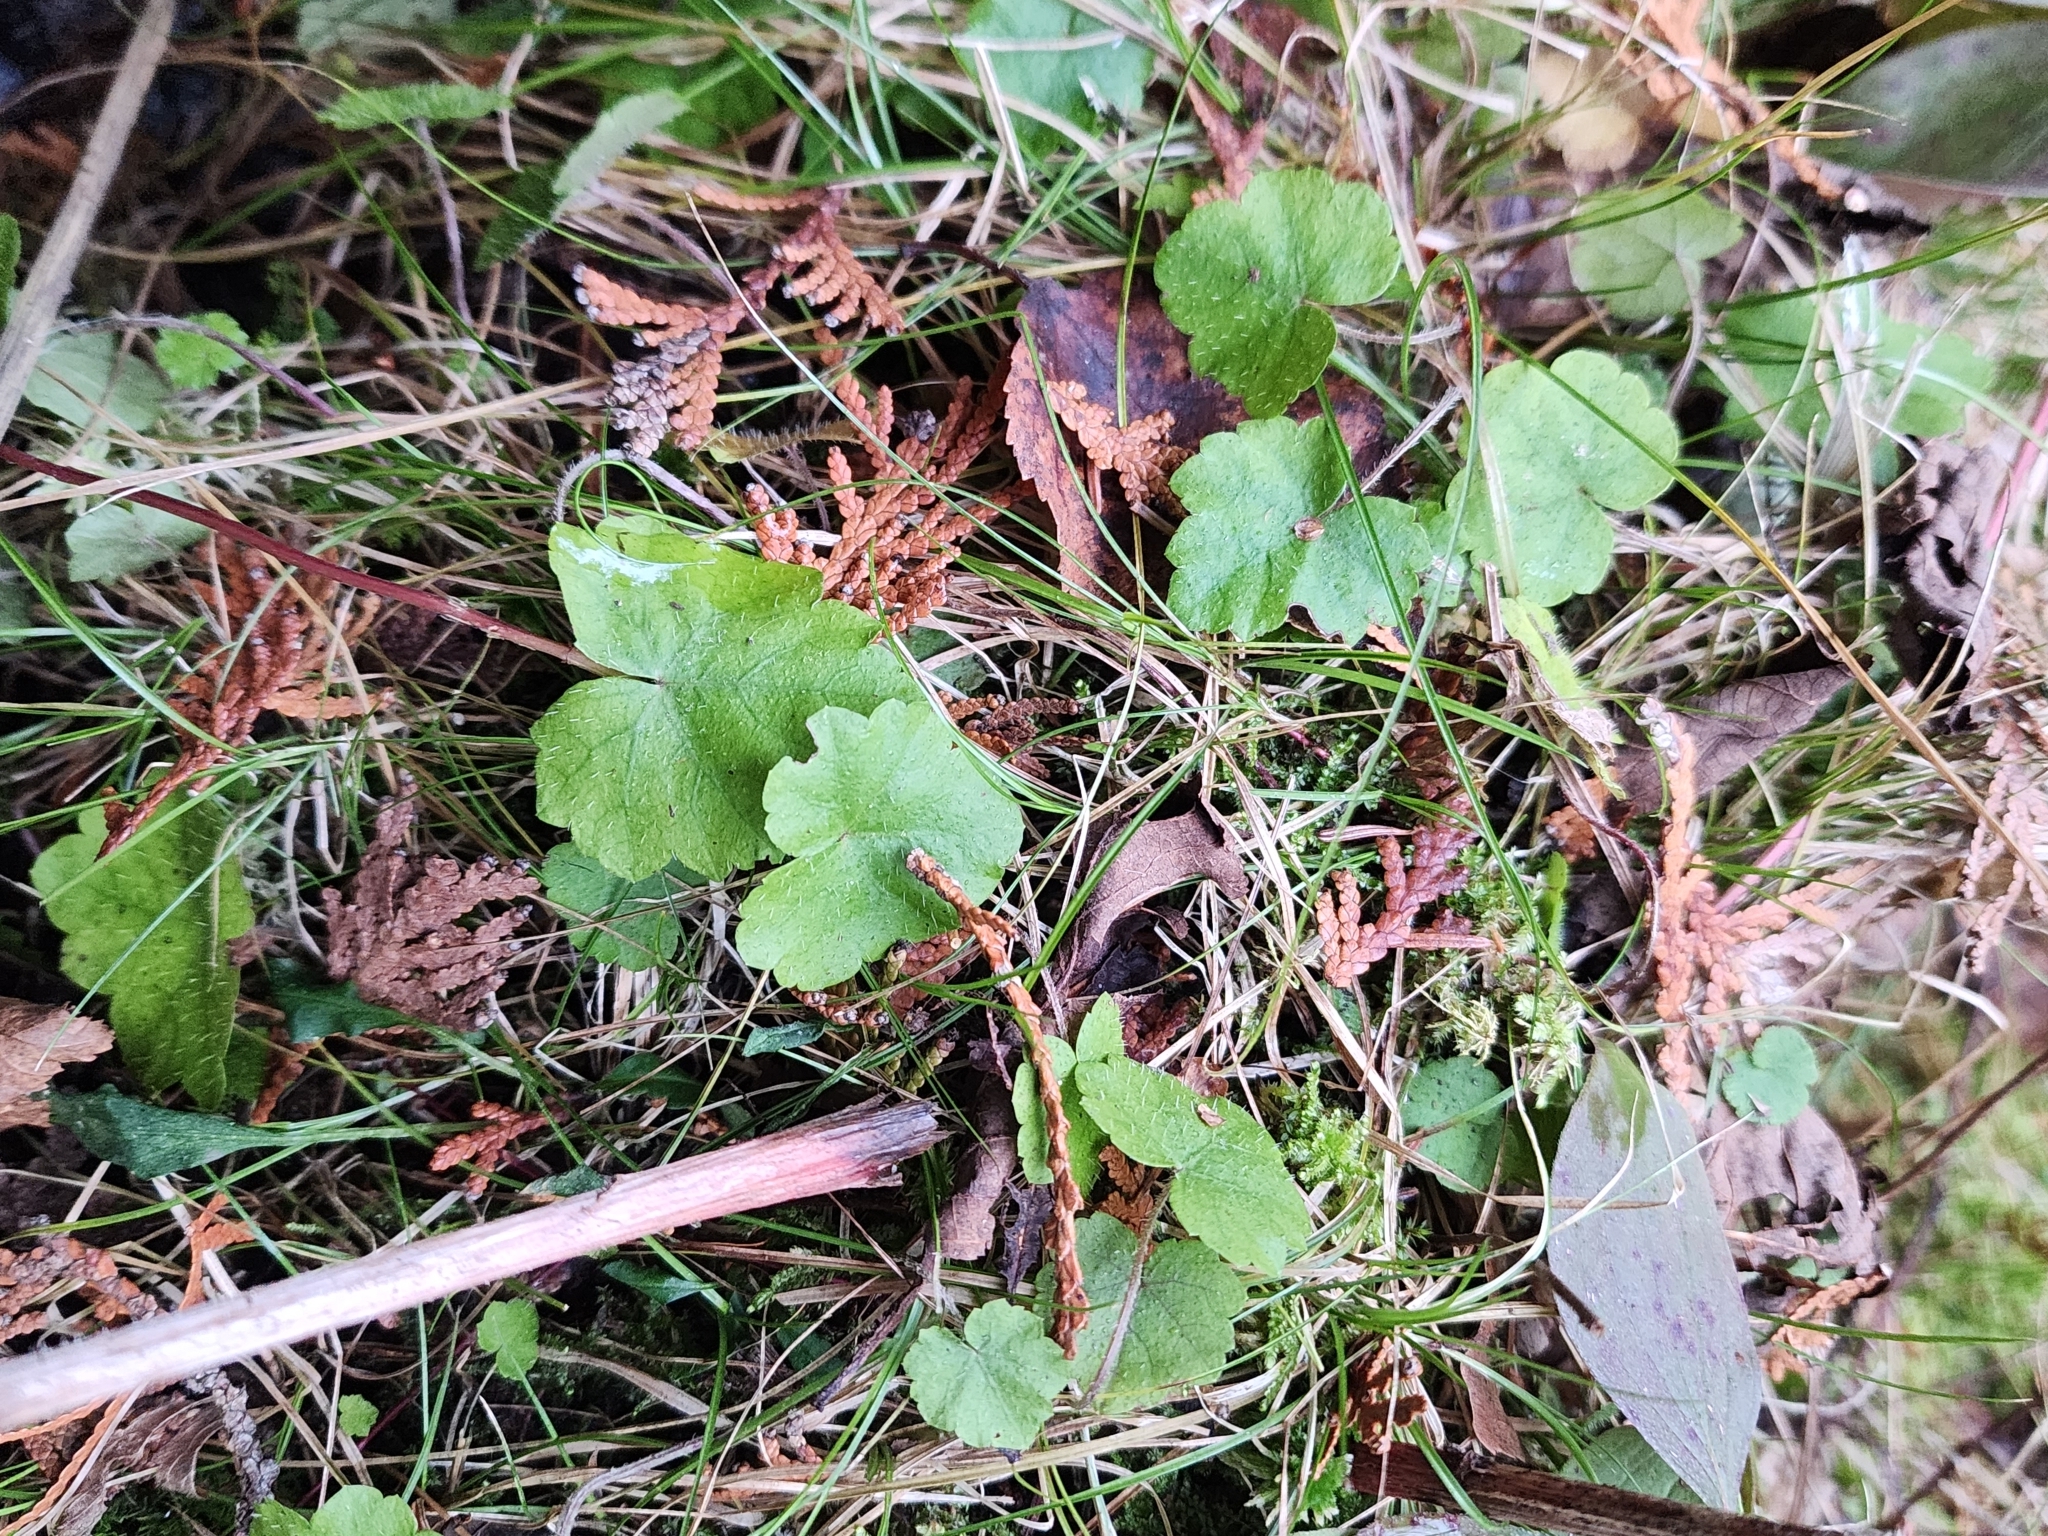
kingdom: Plantae
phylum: Tracheophyta
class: Magnoliopsida
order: Saxifragales
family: Saxifragaceae
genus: Mitella
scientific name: Mitella nuda
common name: Bare-stemmed bishop's-cap
